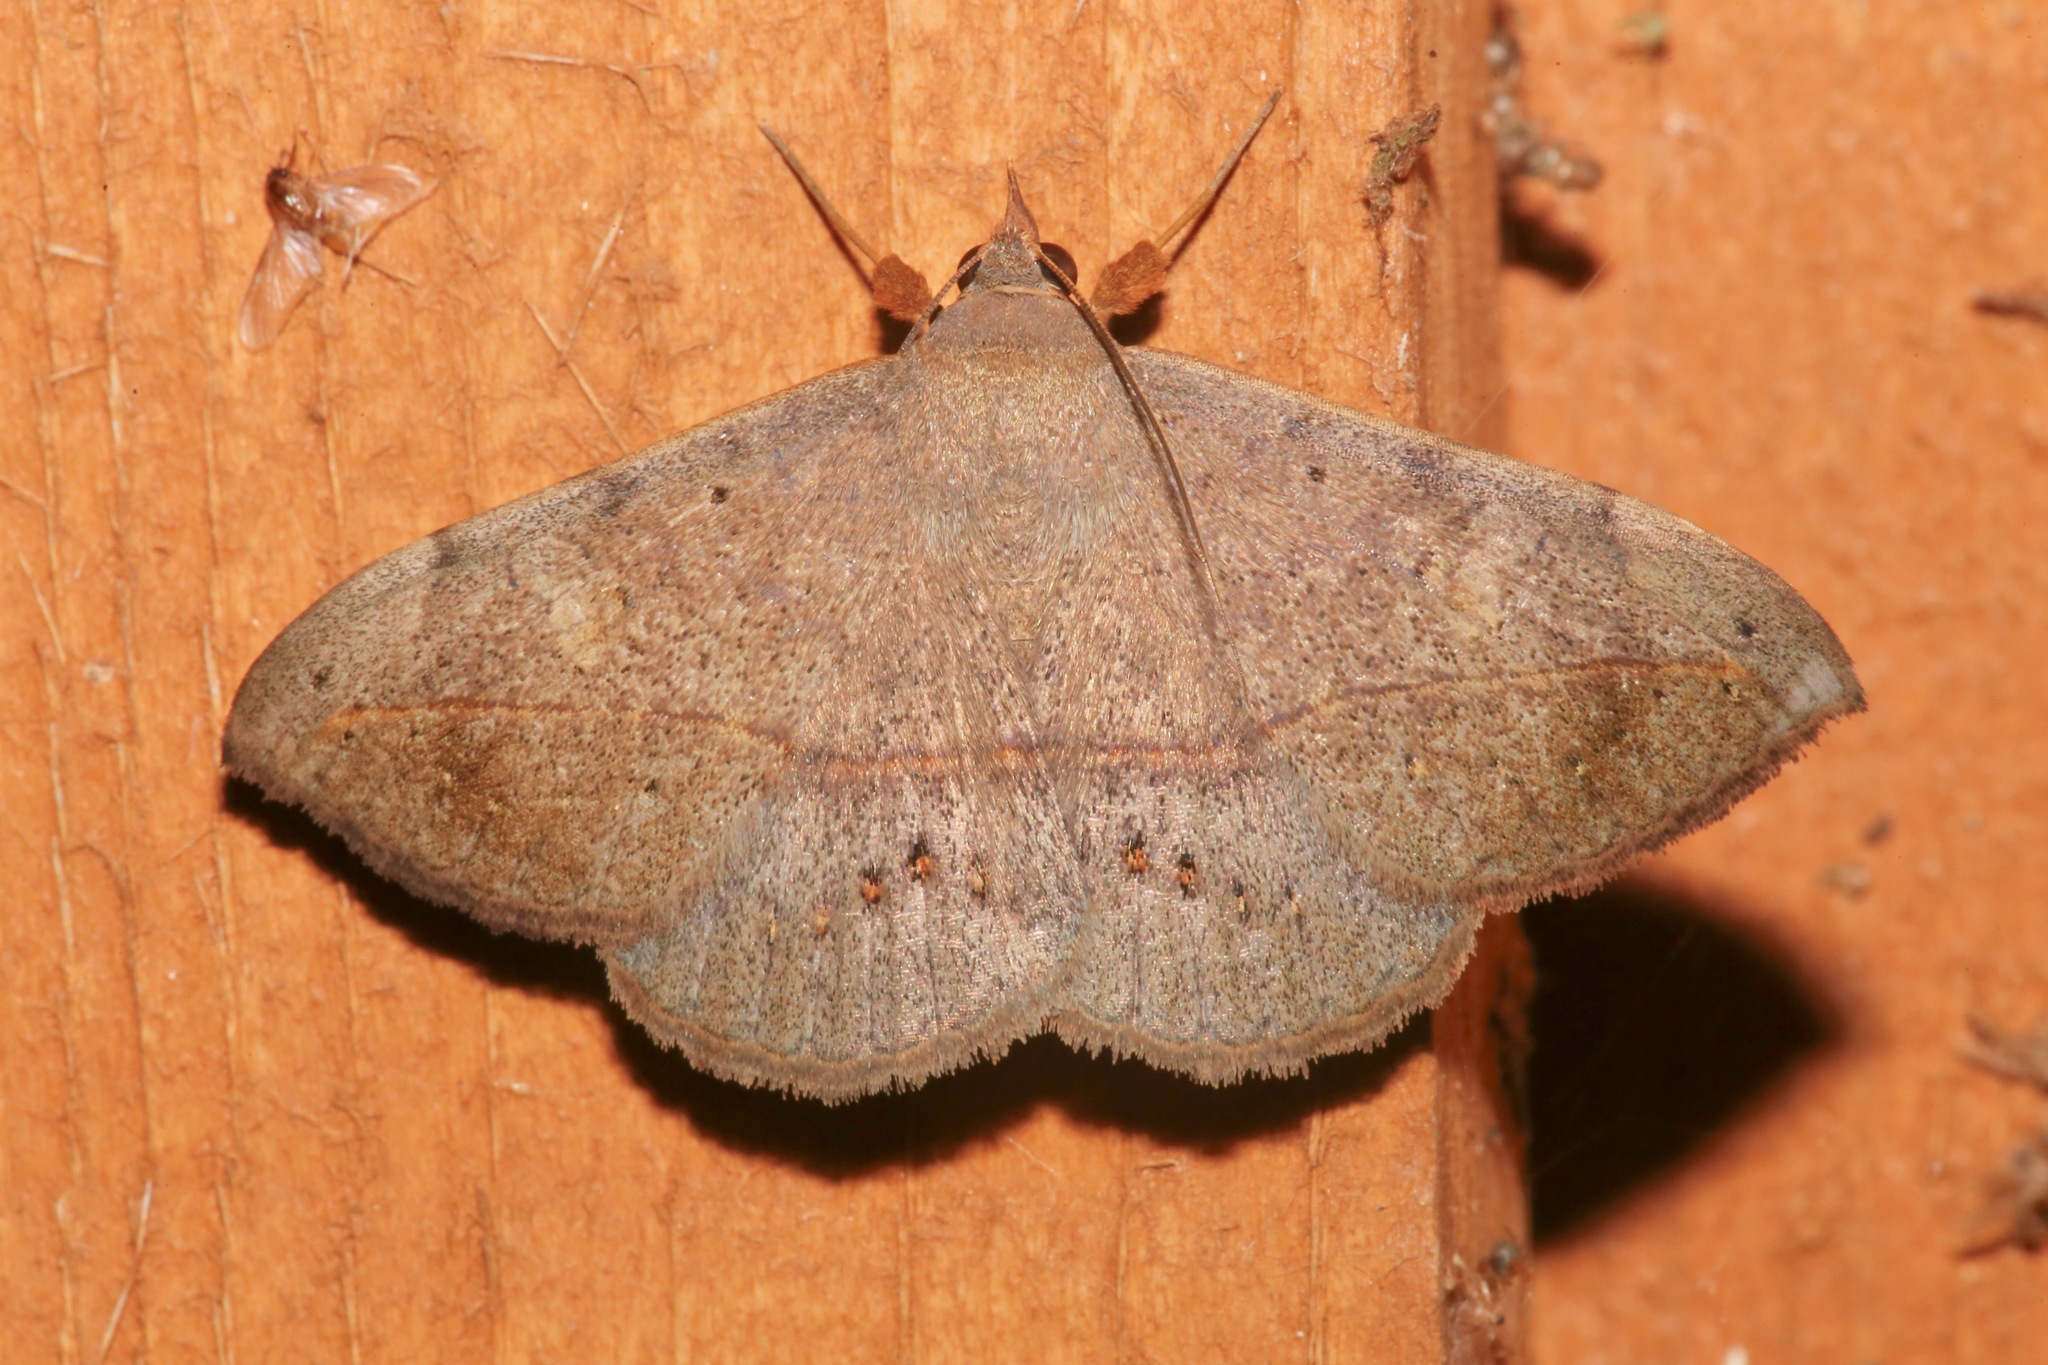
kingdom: Animalia
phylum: Arthropoda
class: Insecta
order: Lepidoptera
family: Erebidae
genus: Anticarsia
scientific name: Anticarsia gemmatalis
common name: Cutworm moth
